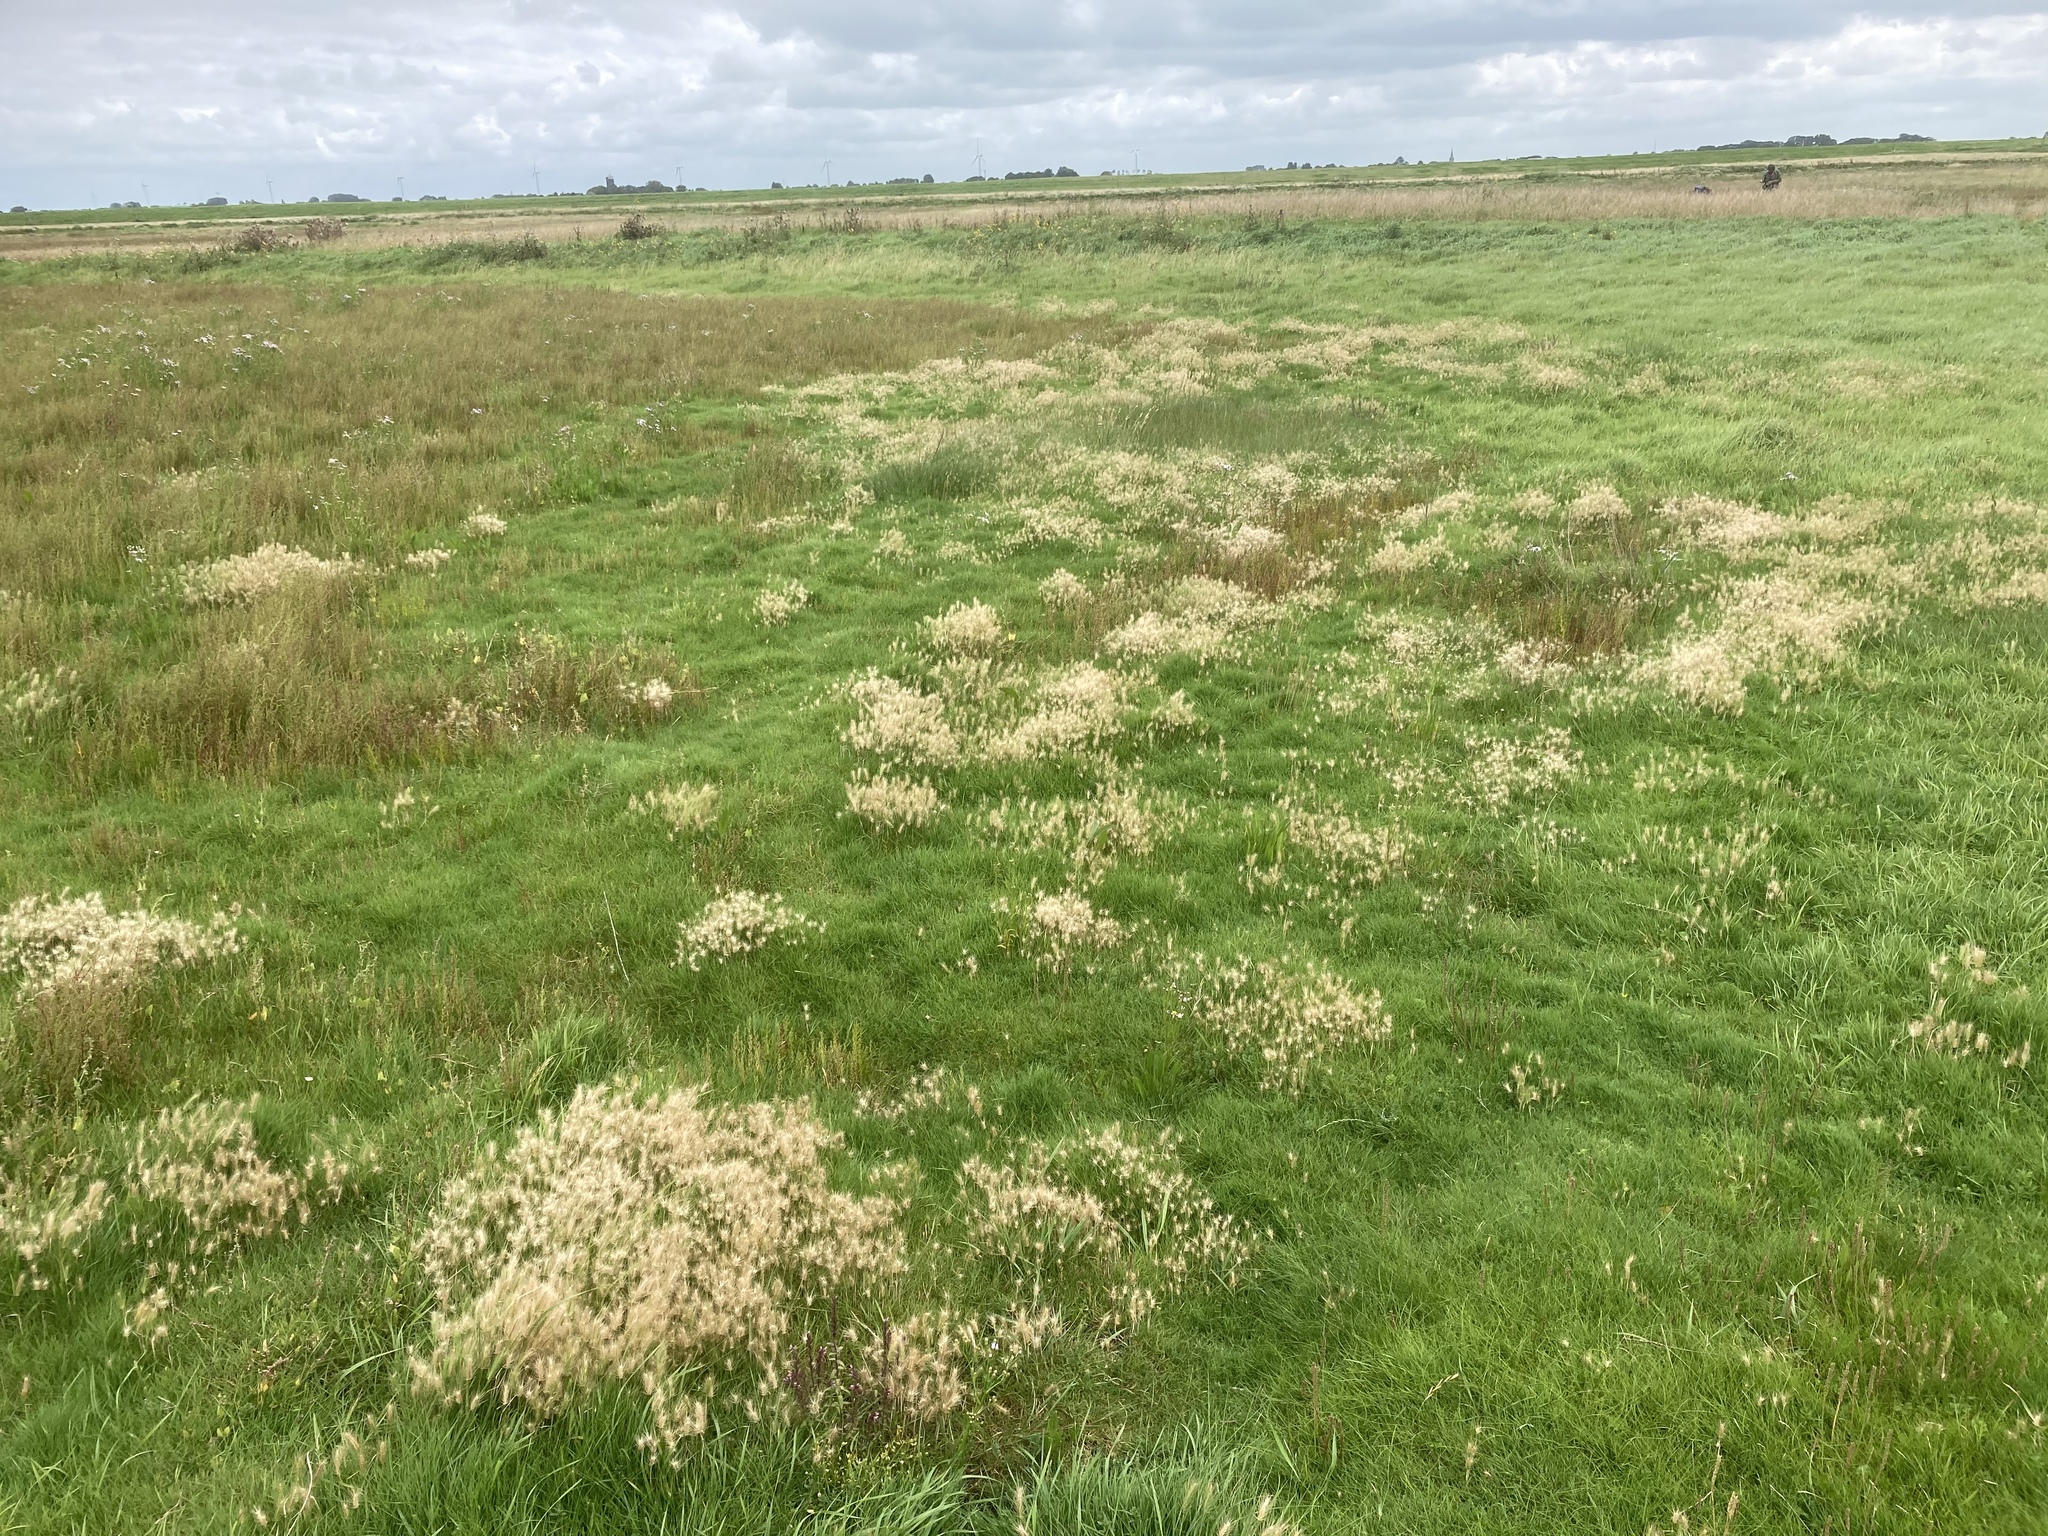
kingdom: Plantae
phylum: Tracheophyta
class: Liliopsida
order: Poales
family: Poaceae
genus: Hordeum
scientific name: Hordeum marinum
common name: Sea barley
